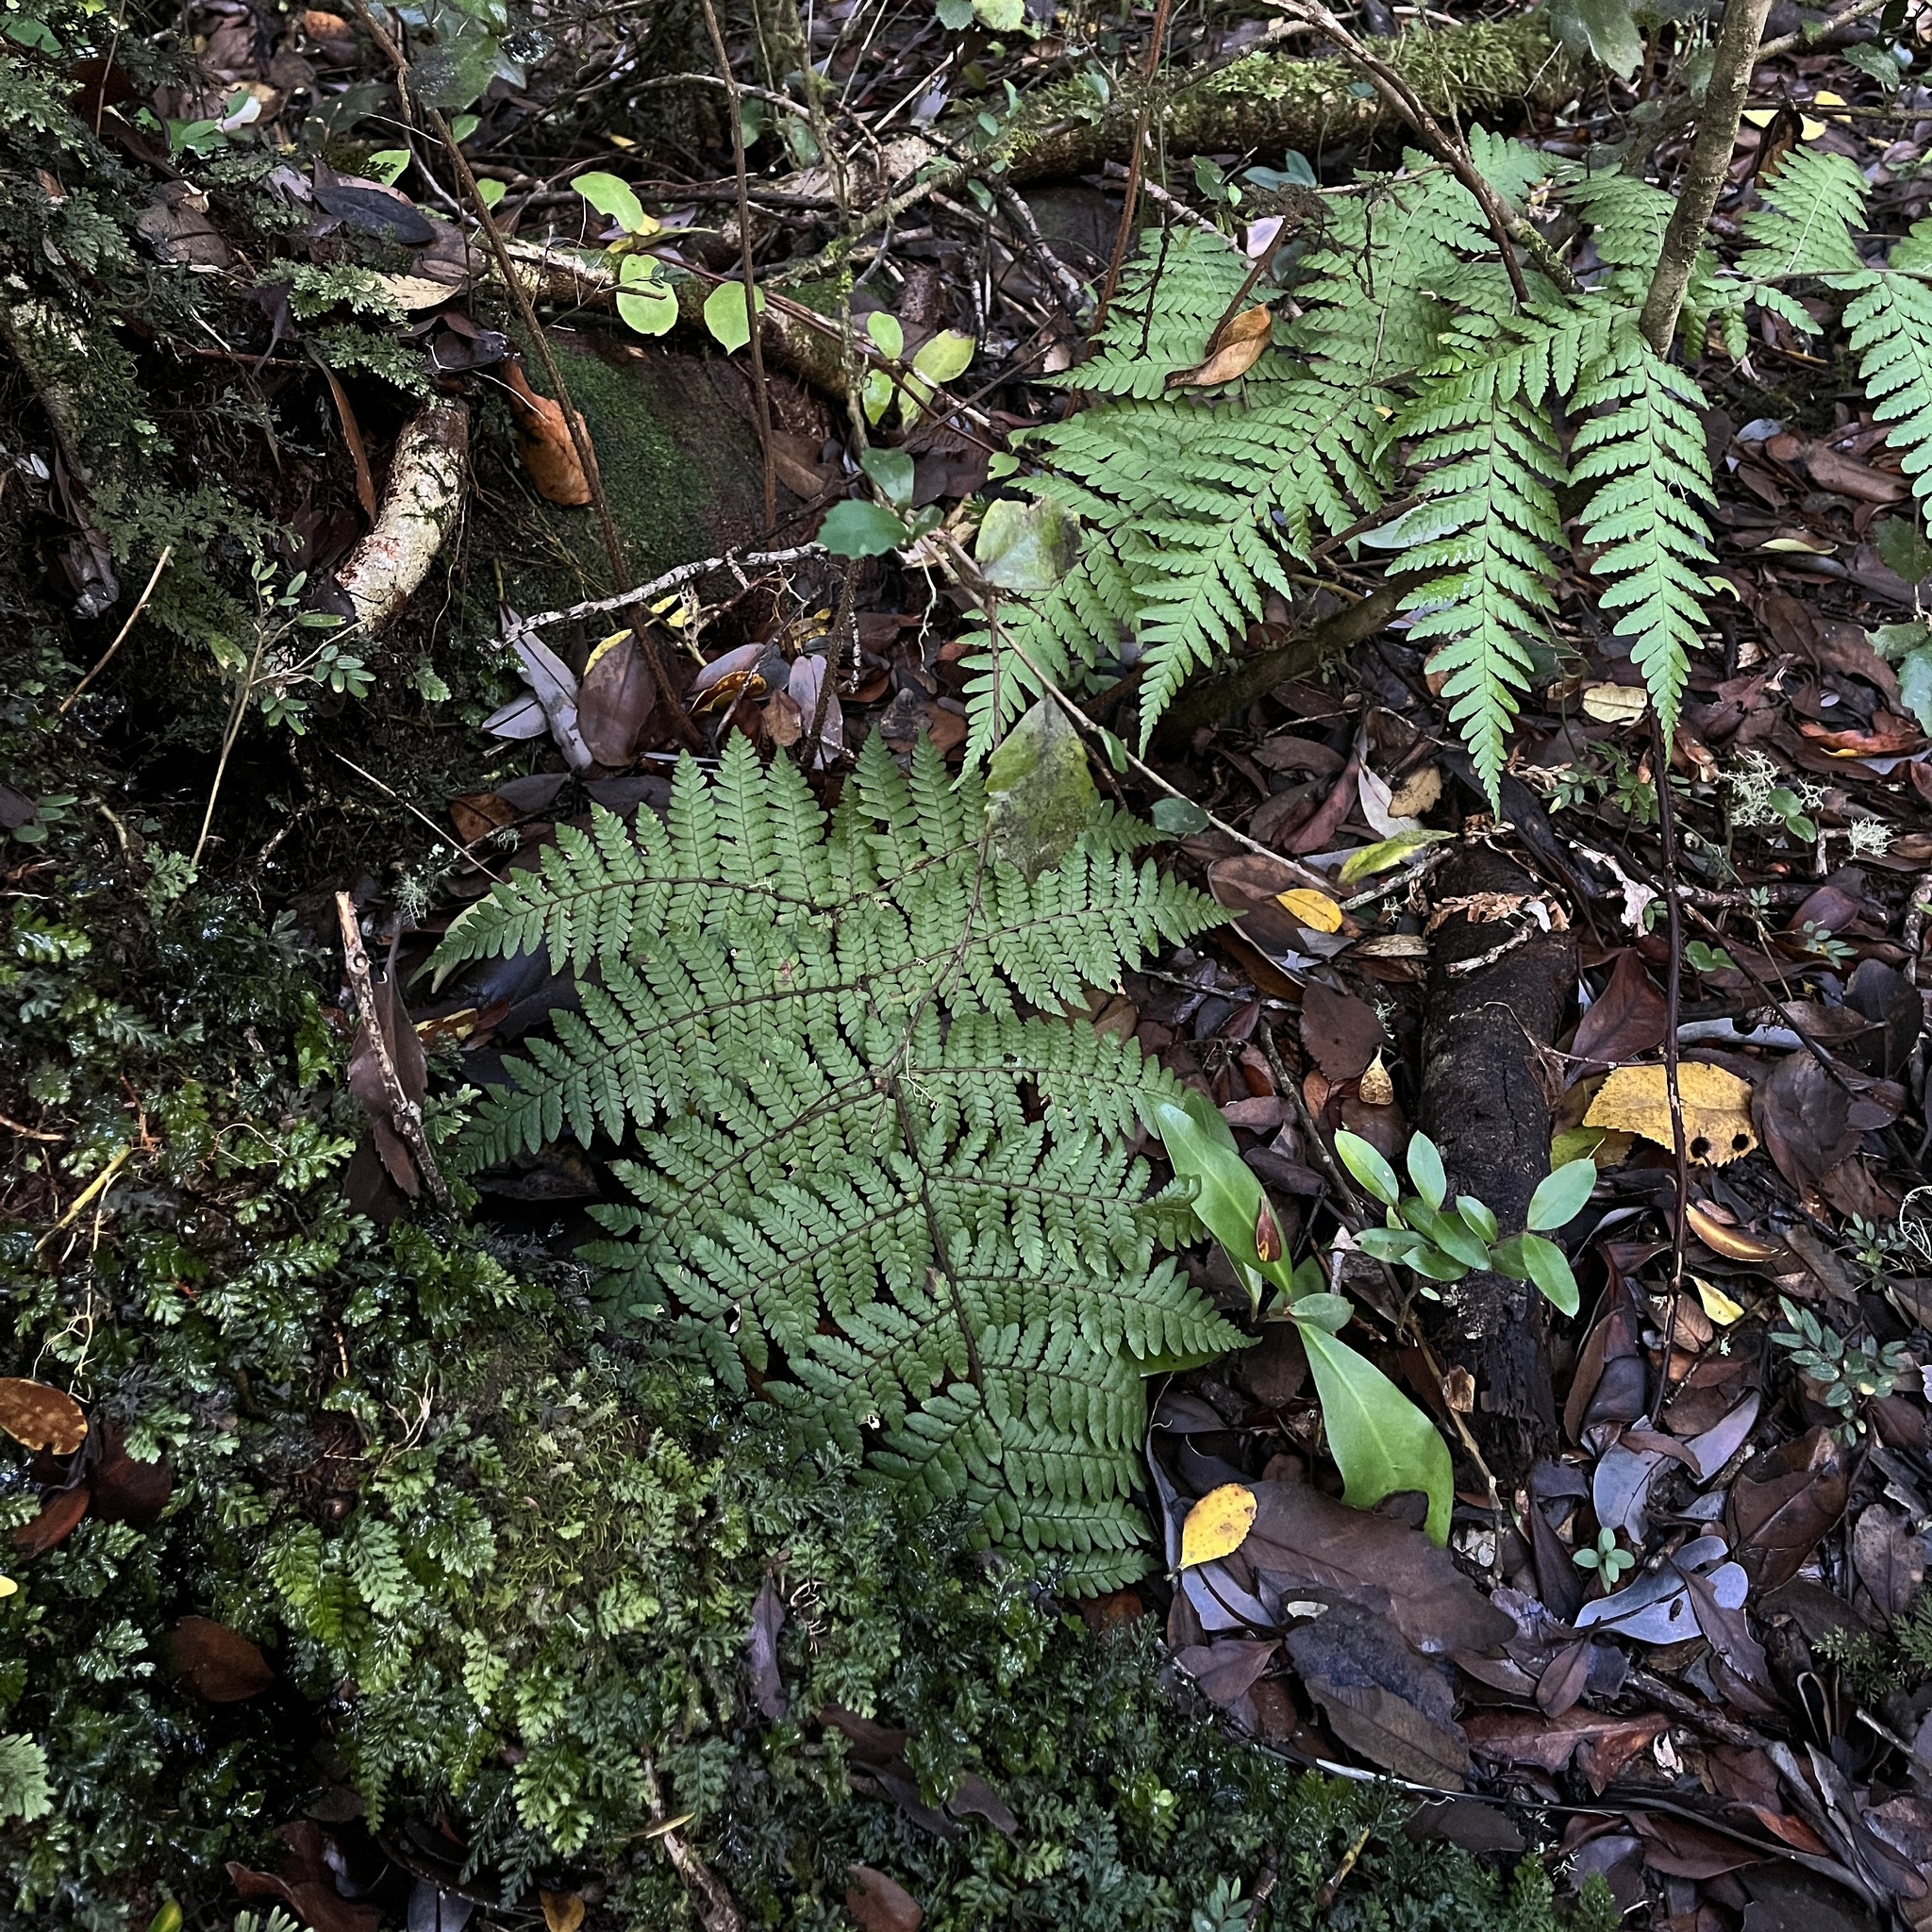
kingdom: Plantae
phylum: Tracheophyta
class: Polypodiopsida
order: Polypodiales
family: Dryopteridaceae
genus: Megalastrum
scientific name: Megalastrum spectabile
